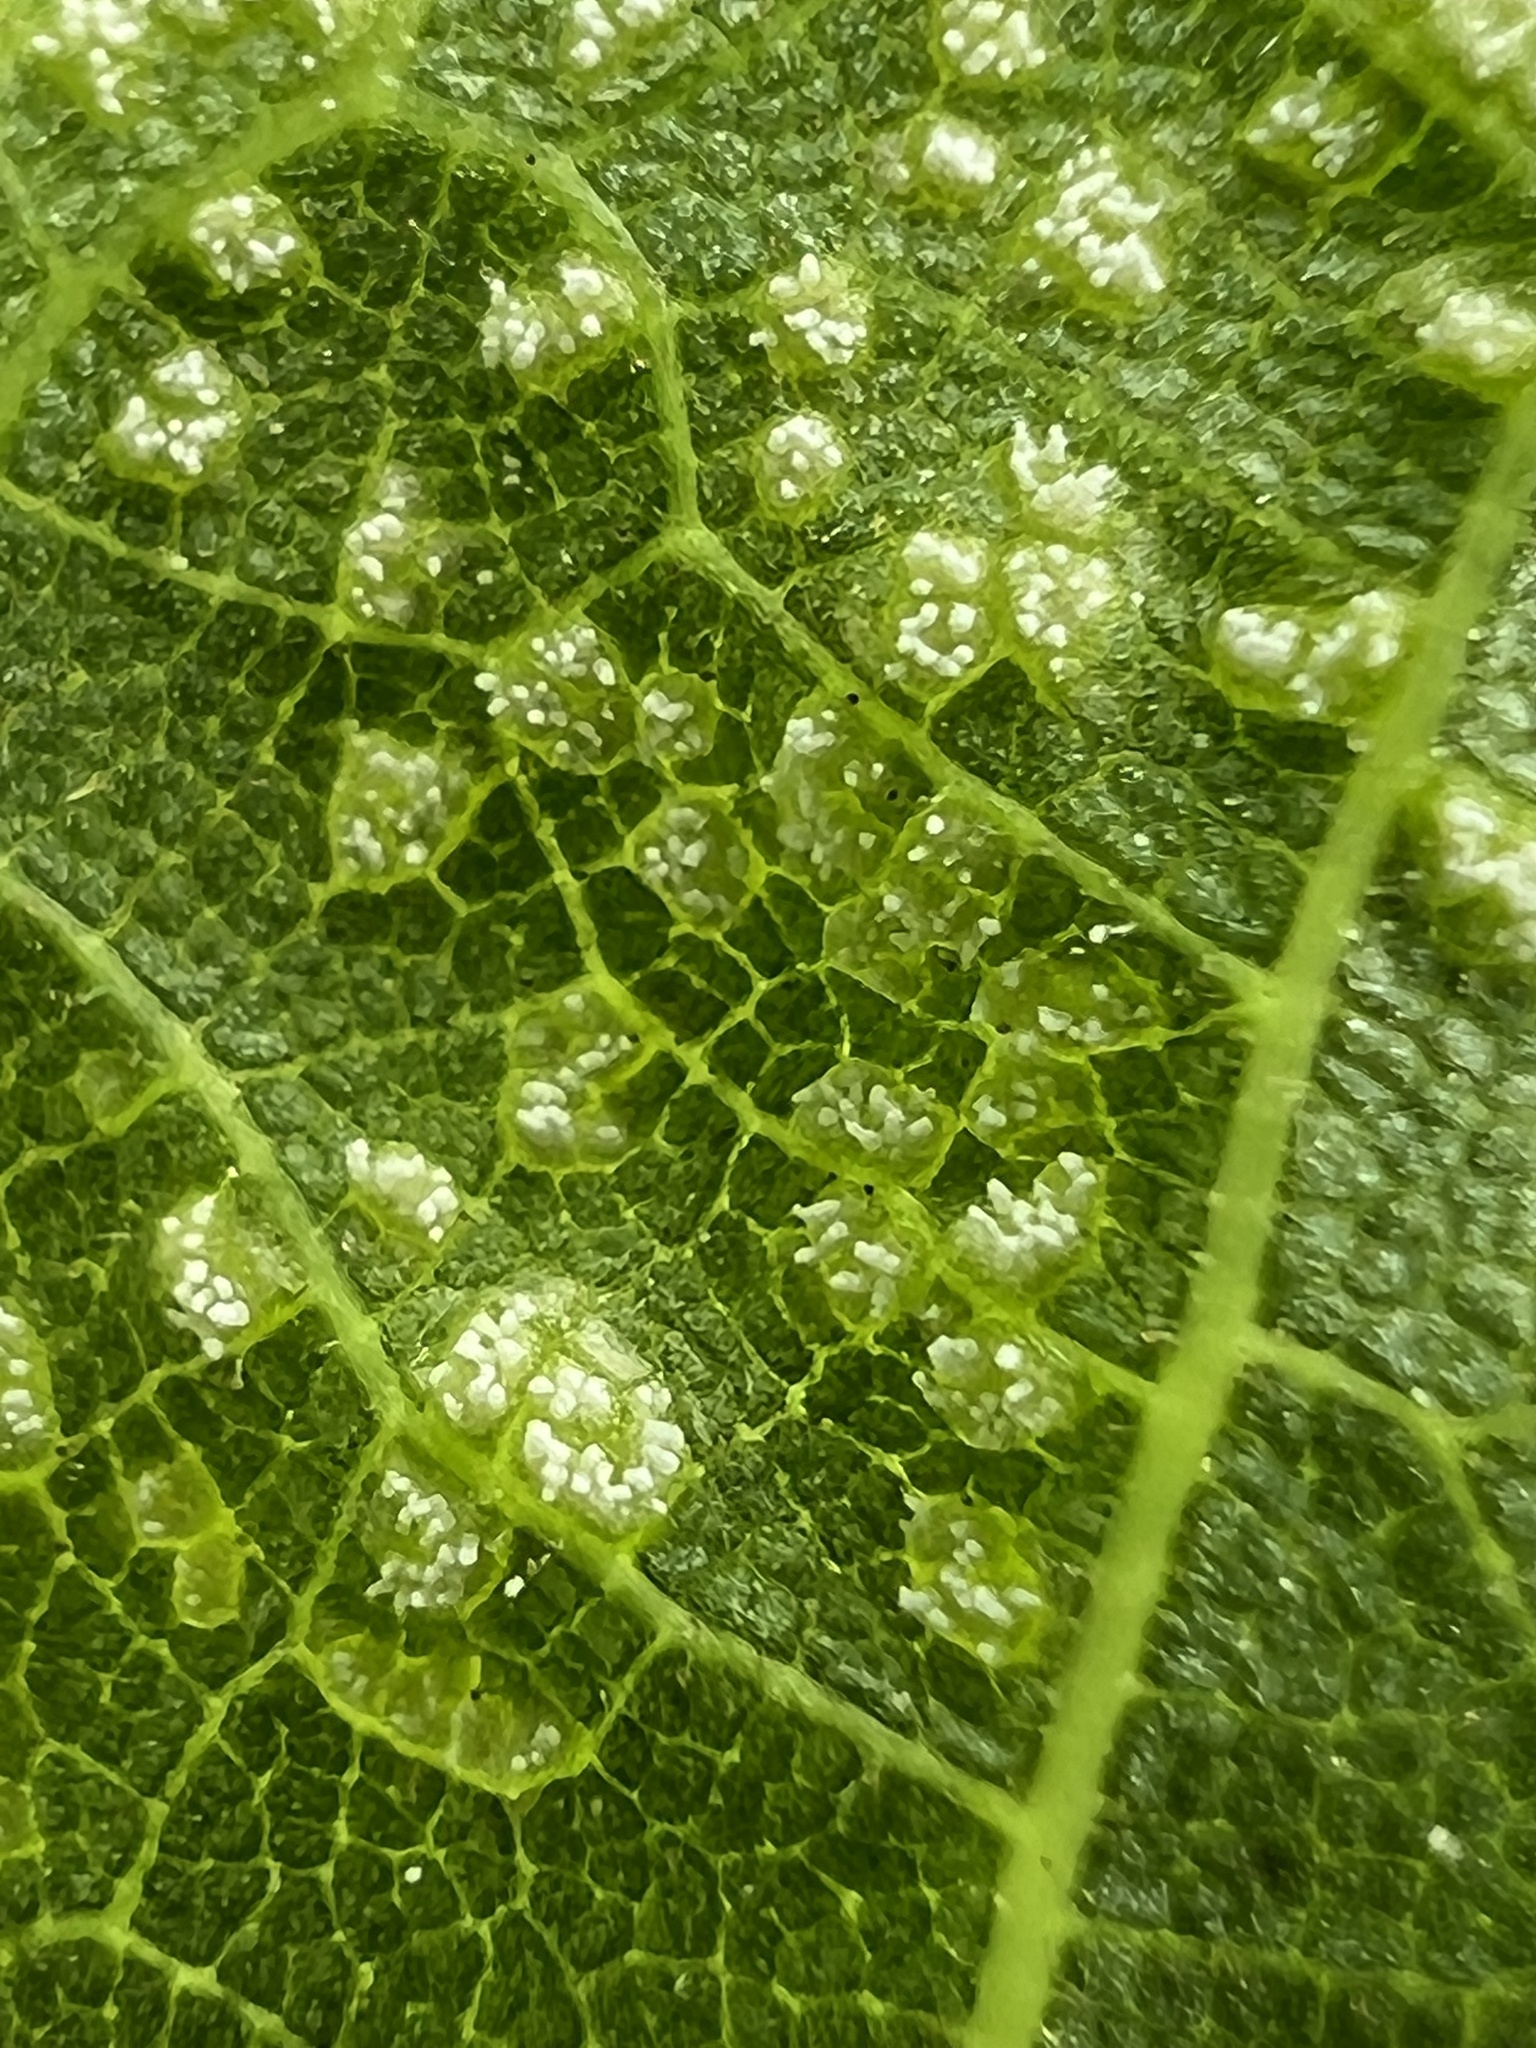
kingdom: Fungi
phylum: Basidiomycota
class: Exobasidiomycetes
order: Microstromatales
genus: Pseudomicrostroma
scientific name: Pseudomicrostroma juglandis
